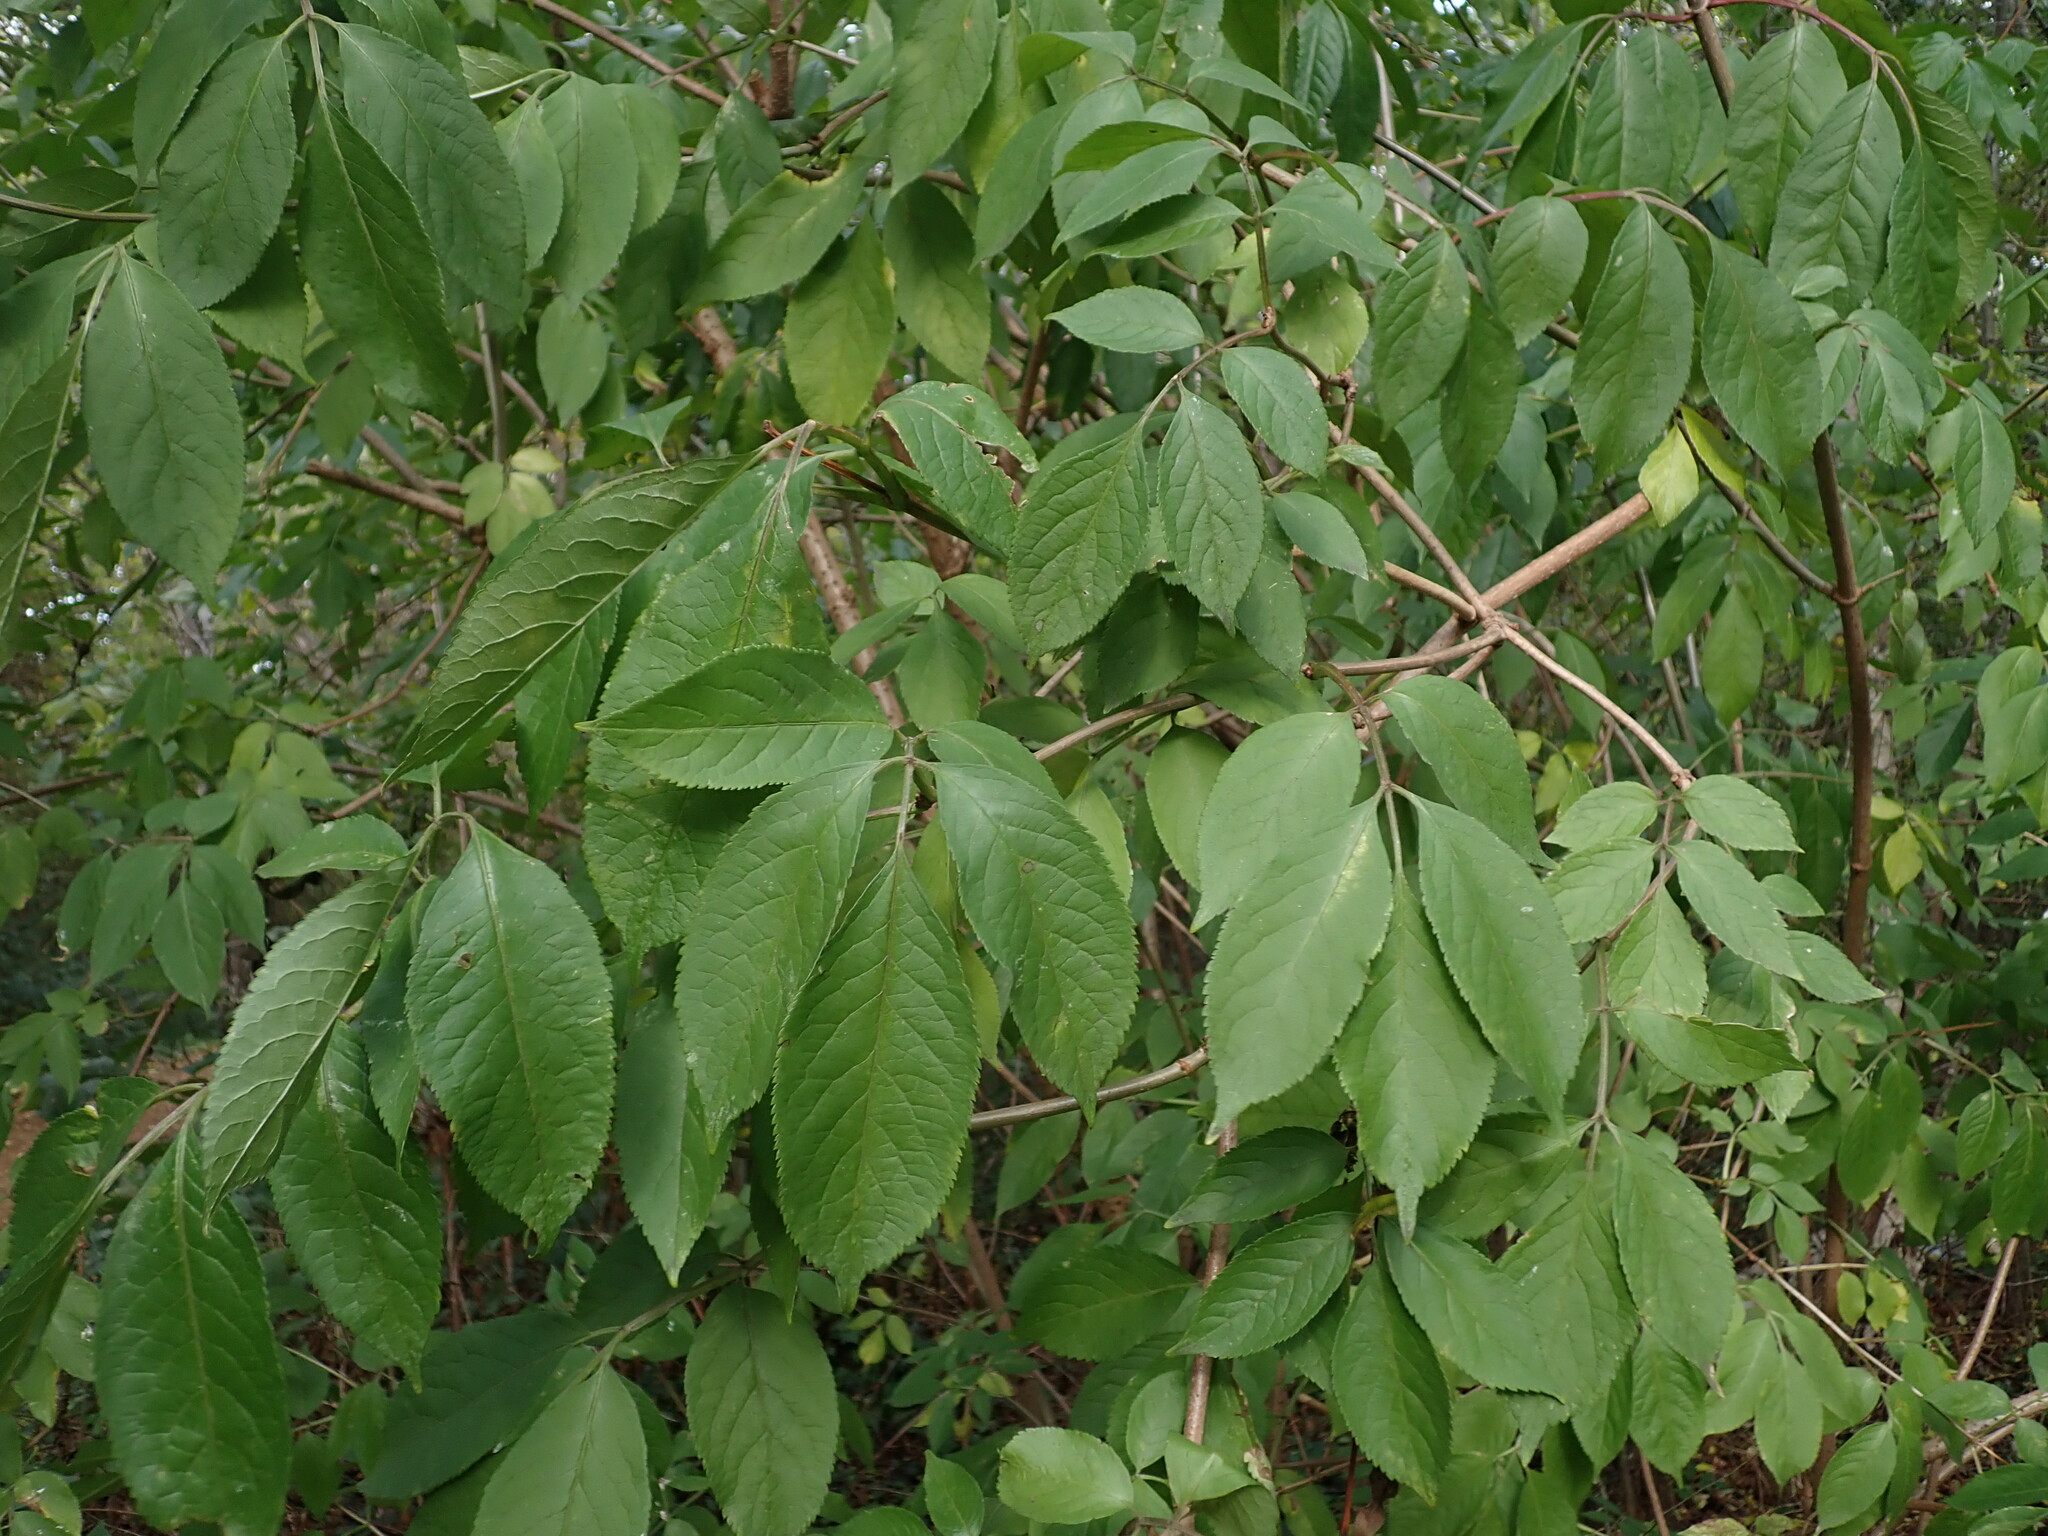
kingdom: Plantae
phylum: Tracheophyta
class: Magnoliopsida
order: Dipsacales
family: Viburnaceae
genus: Sambucus
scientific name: Sambucus nigra
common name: Elder
